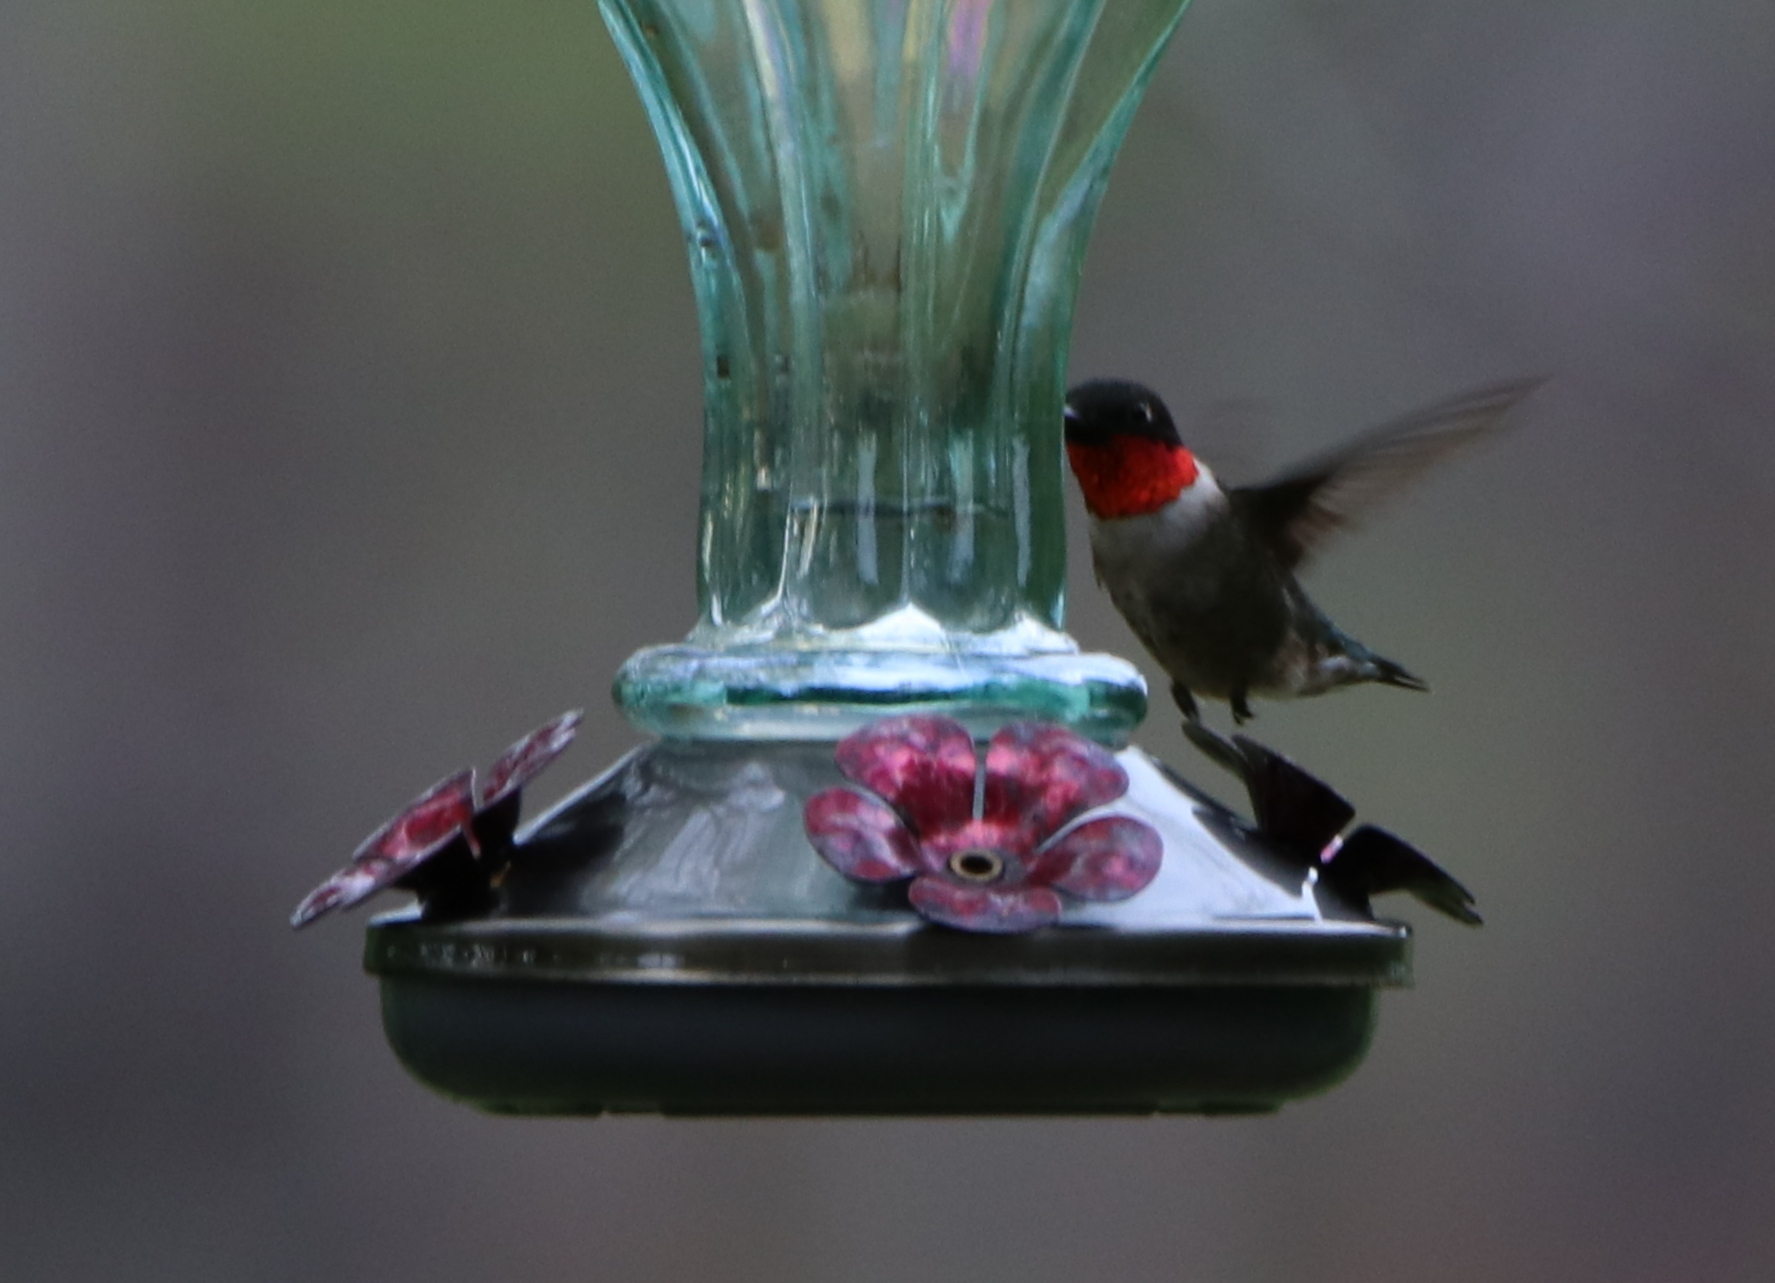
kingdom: Animalia
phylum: Chordata
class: Aves
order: Apodiformes
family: Trochilidae
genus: Archilochus
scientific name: Archilochus colubris
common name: Ruby-throated hummingbird
